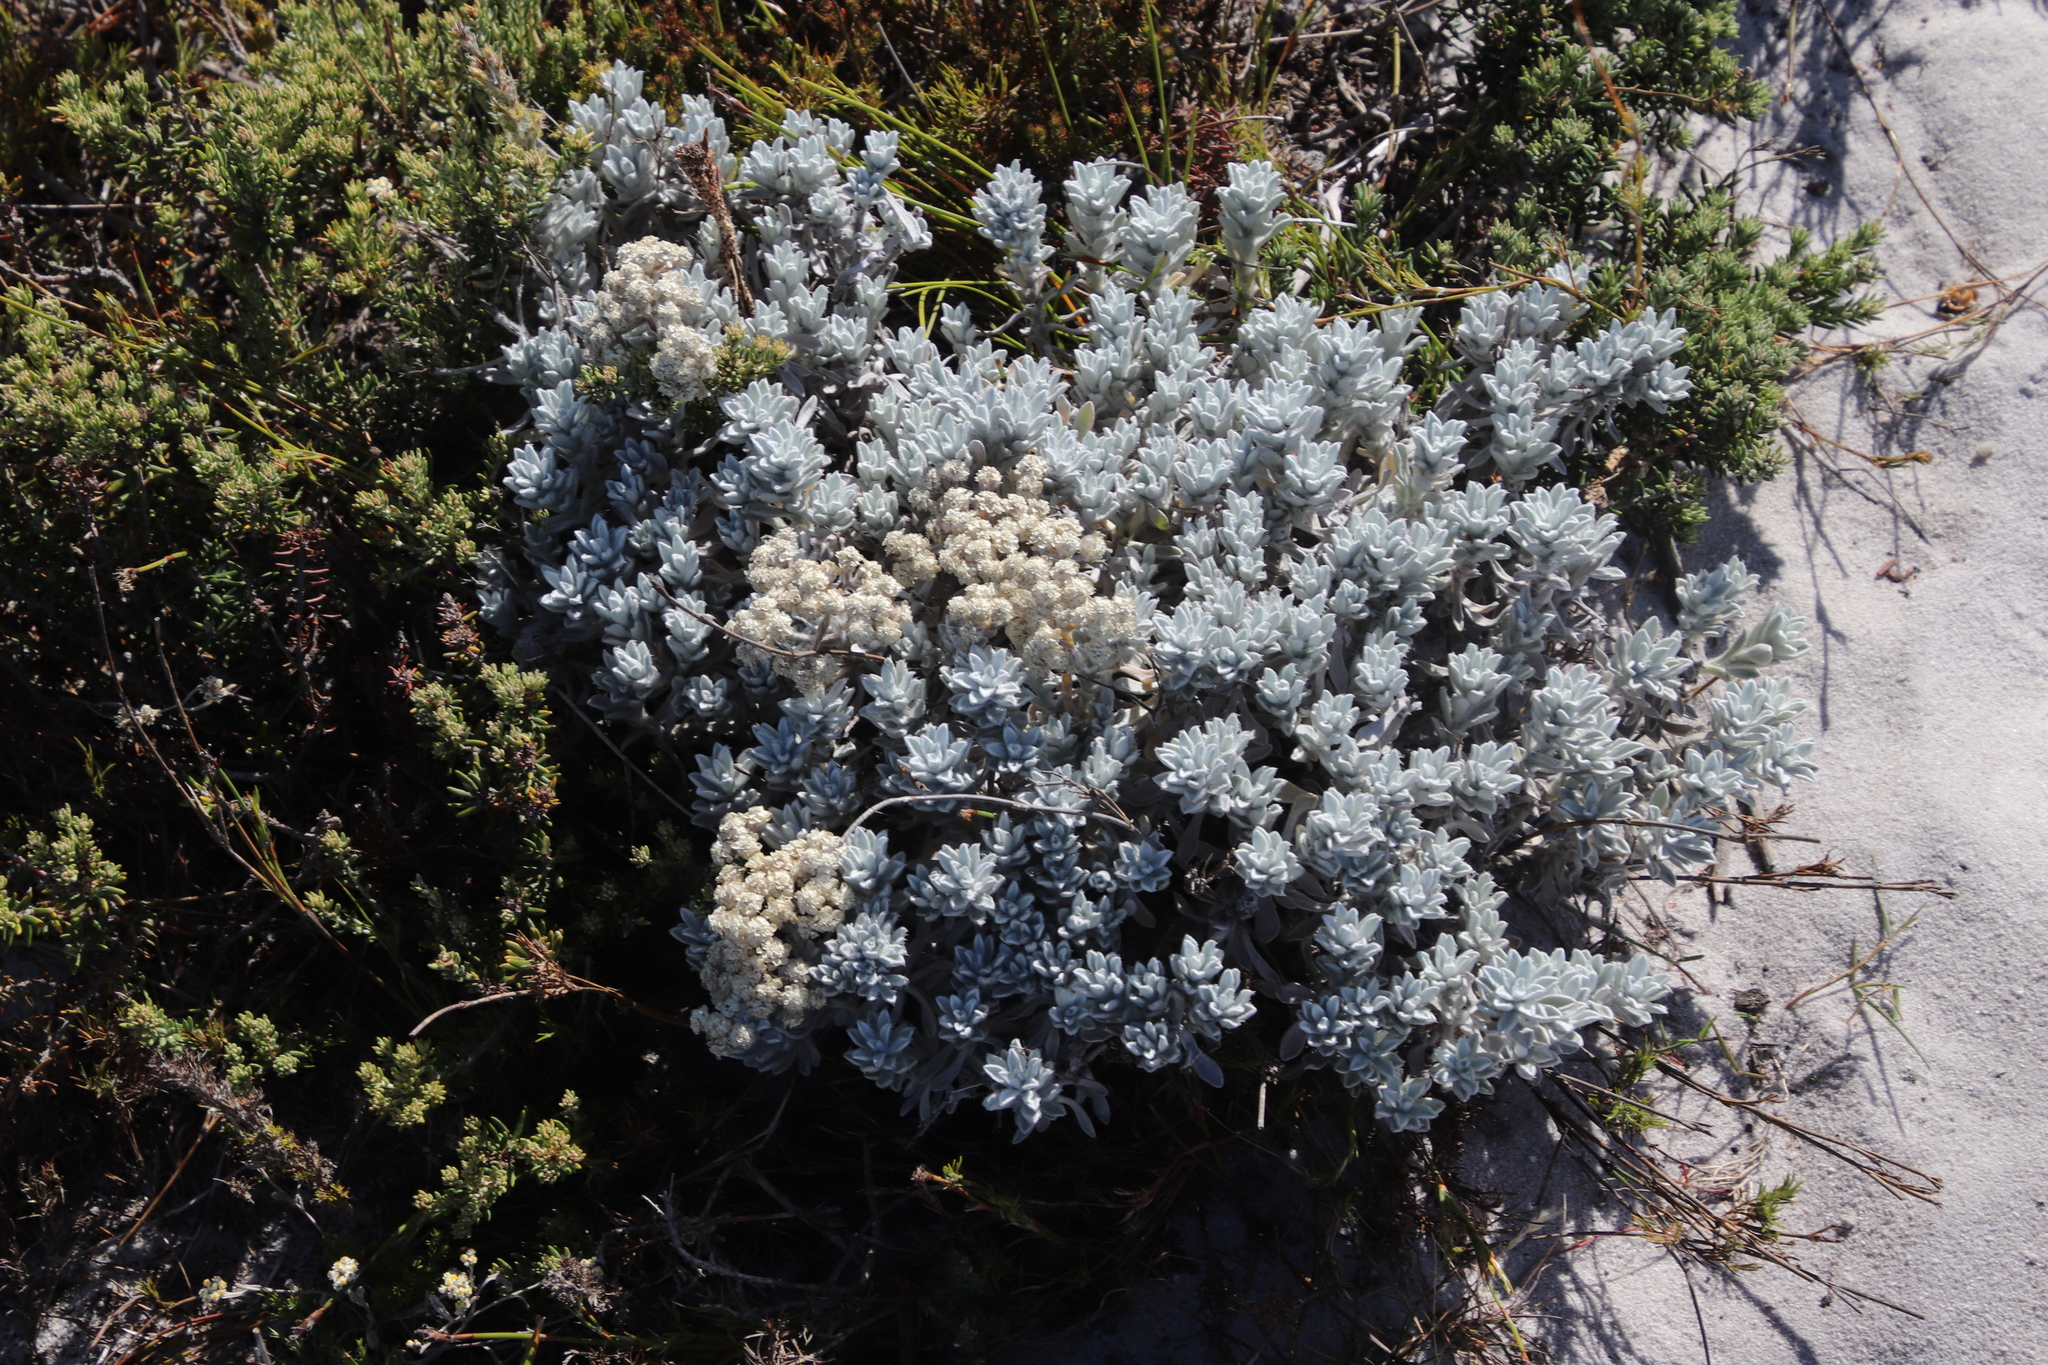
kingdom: Plantae
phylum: Tracheophyta
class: Magnoliopsida
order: Asterales
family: Asteraceae
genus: Petalacte
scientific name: Petalacte coronata
